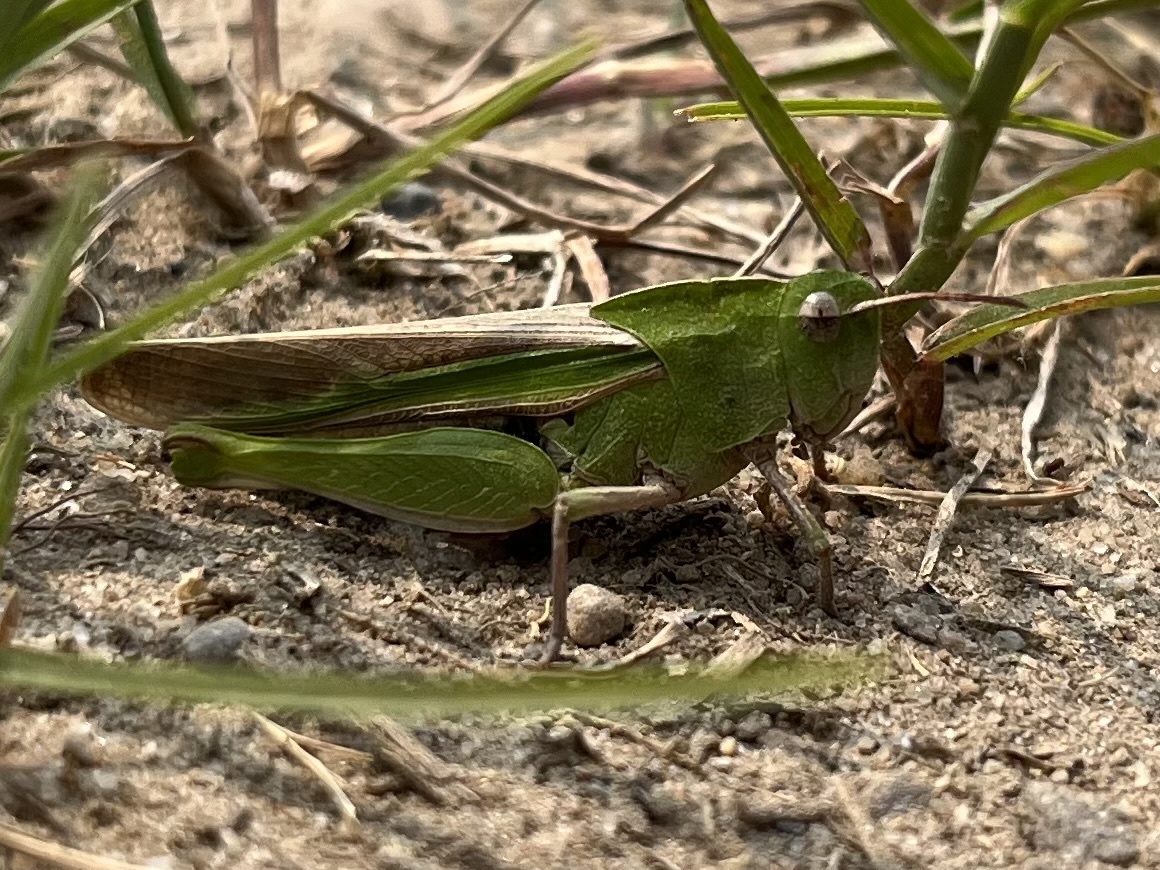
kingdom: Animalia
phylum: Arthropoda
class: Insecta
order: Orthoptera
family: Acrididae
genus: Chortophaga
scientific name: Chortophaga viridifasciata
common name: Green-striped grasshopper
